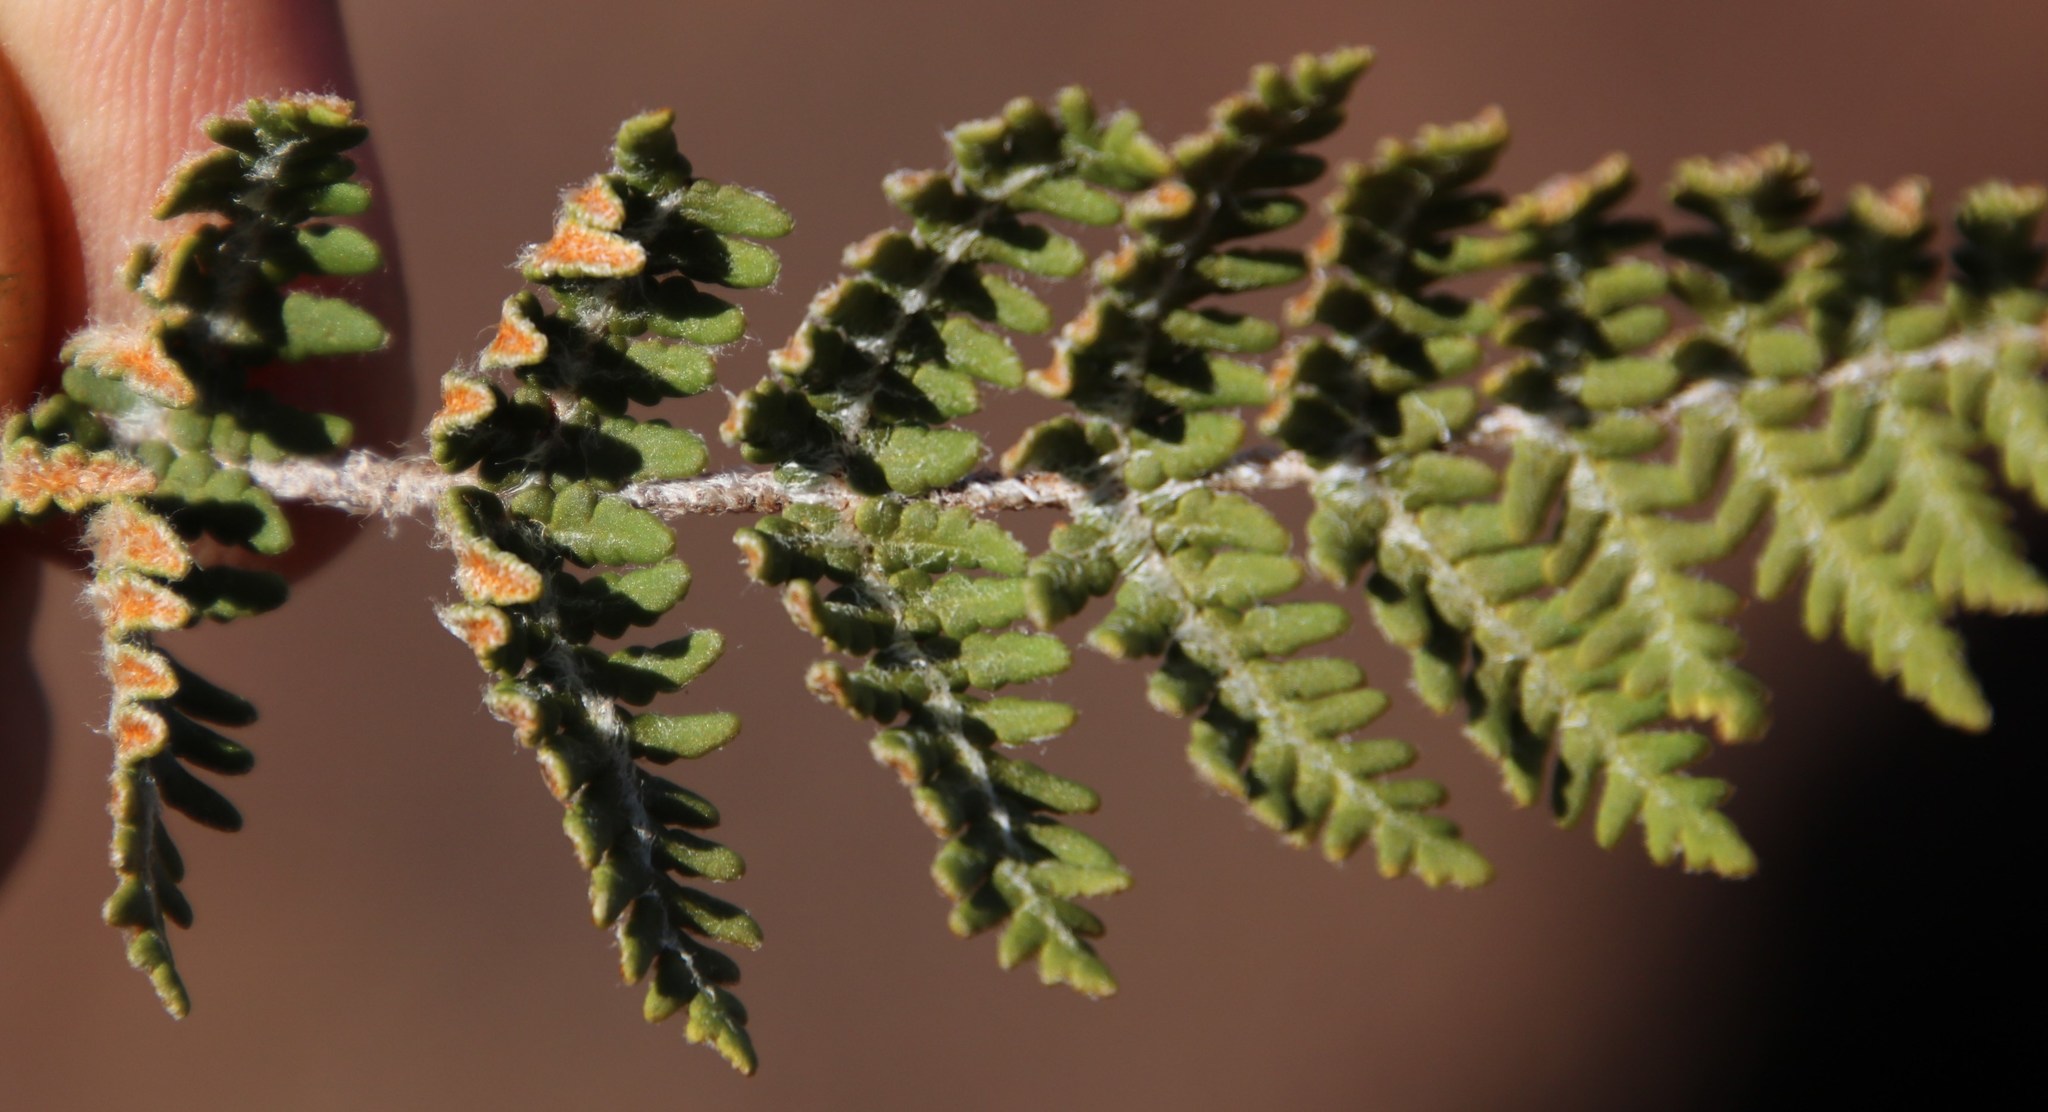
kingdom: Plantae
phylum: Tracheophyta
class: Polypodiopsida
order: Polypodiales
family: Pteridaceae
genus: Cheilanthes
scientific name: Cheilanthes eckloniana
